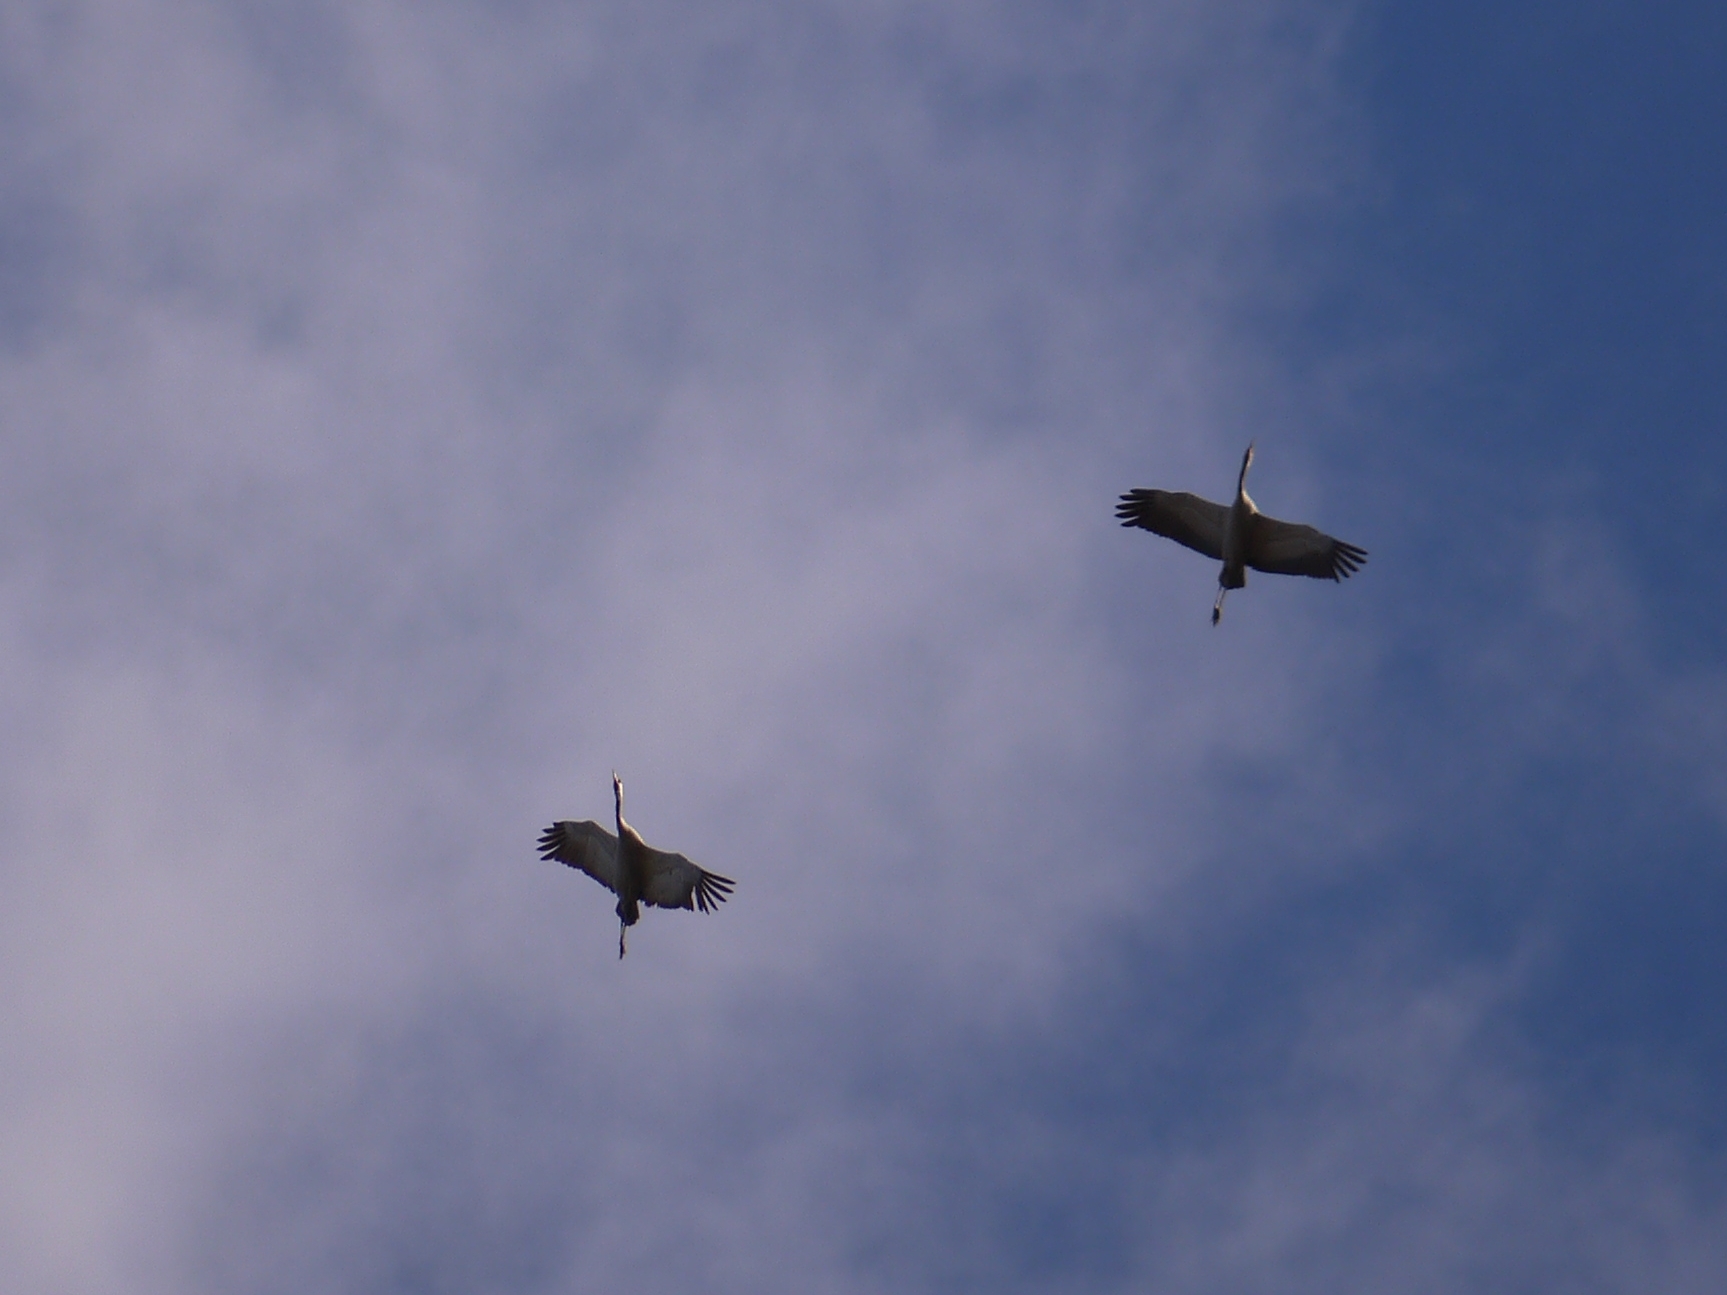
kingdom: Animalia
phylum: Chordata
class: Aves
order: Gruiformes
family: Gruidae
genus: Grus
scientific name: Grus grus
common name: Common crane
